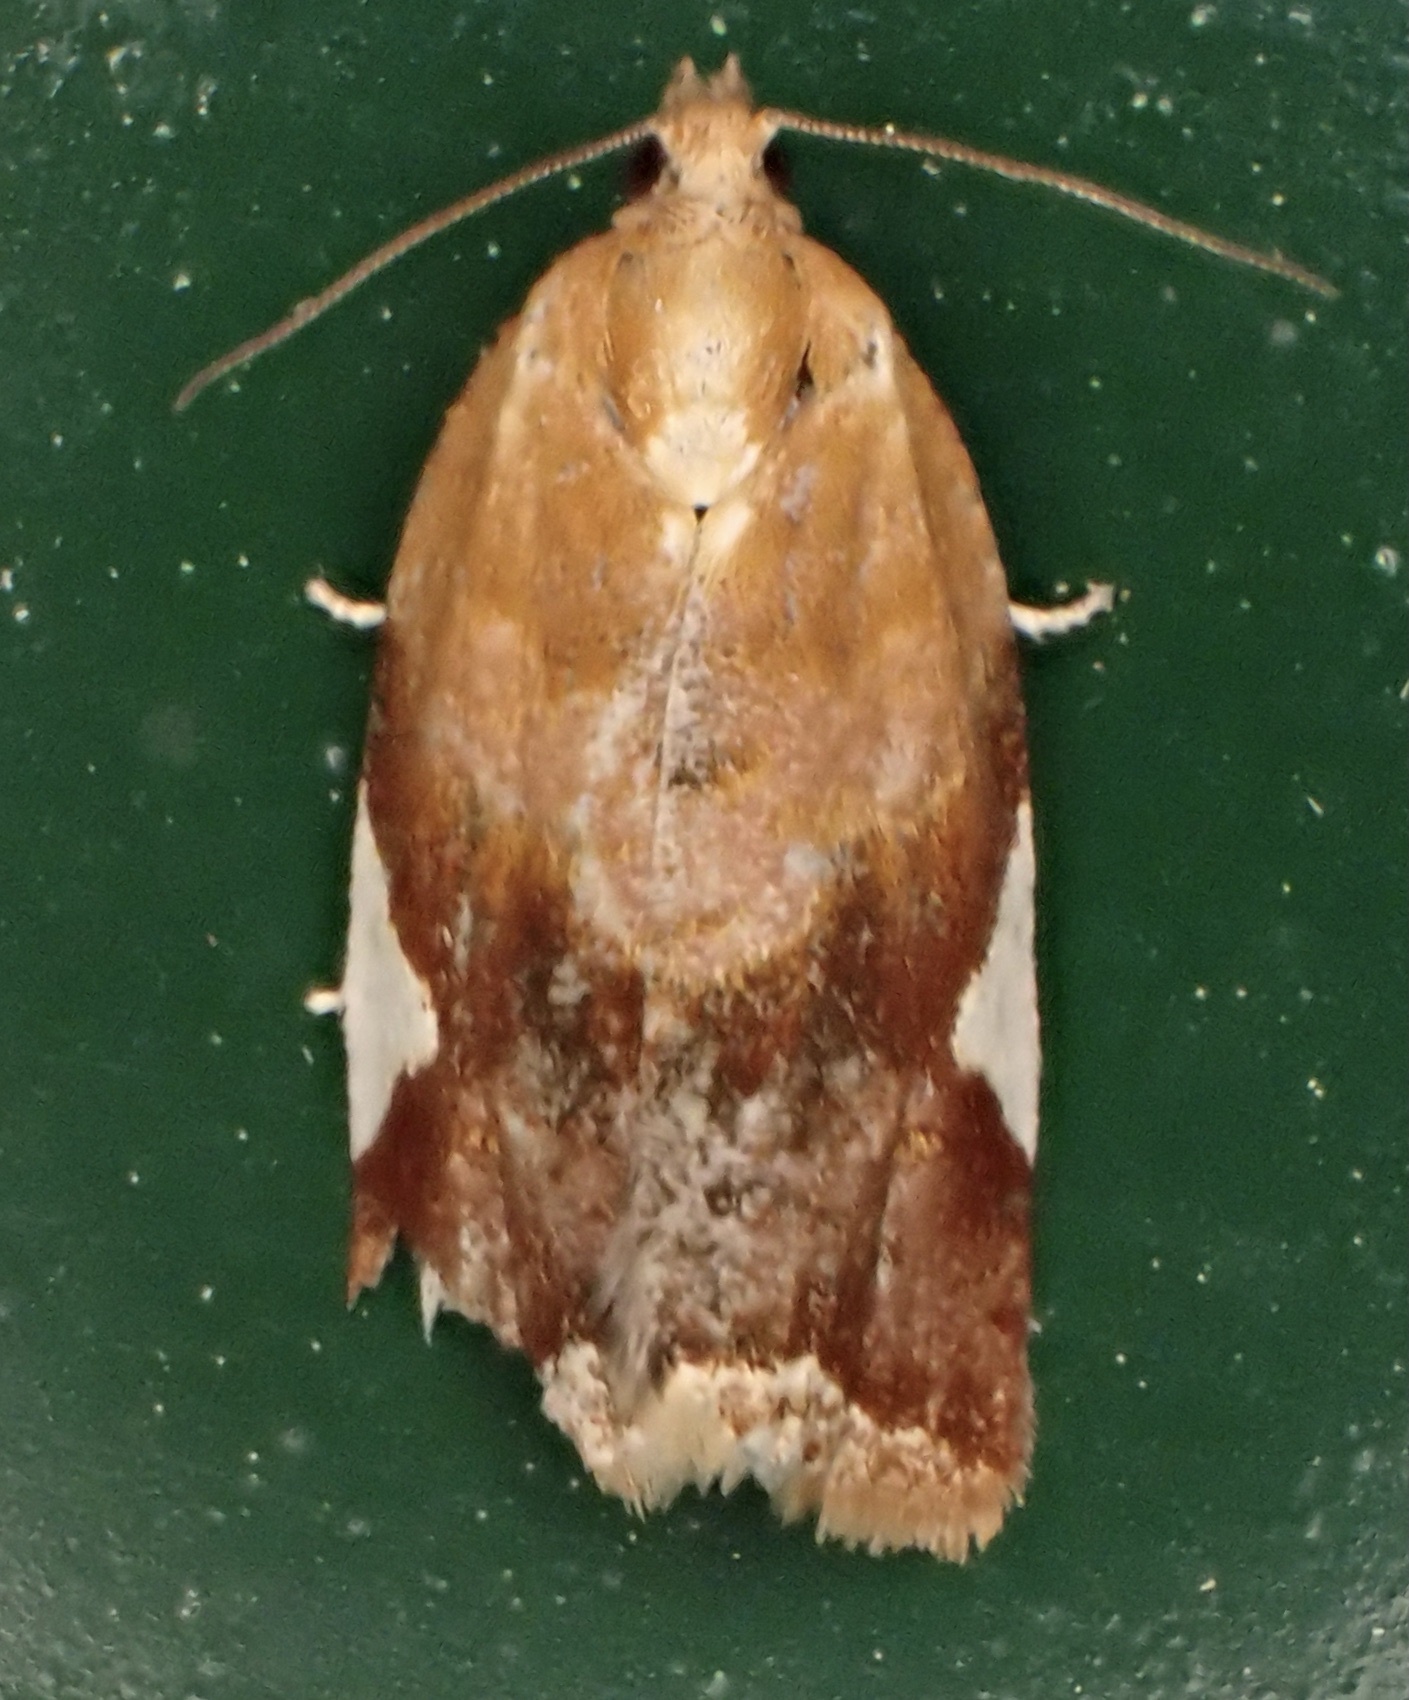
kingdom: Animalia
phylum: Arthropoda
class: Insecta
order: Lepidoptera
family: Tortricidae
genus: Clepsis
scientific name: Clepsis persicana
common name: White triangle tortrix
